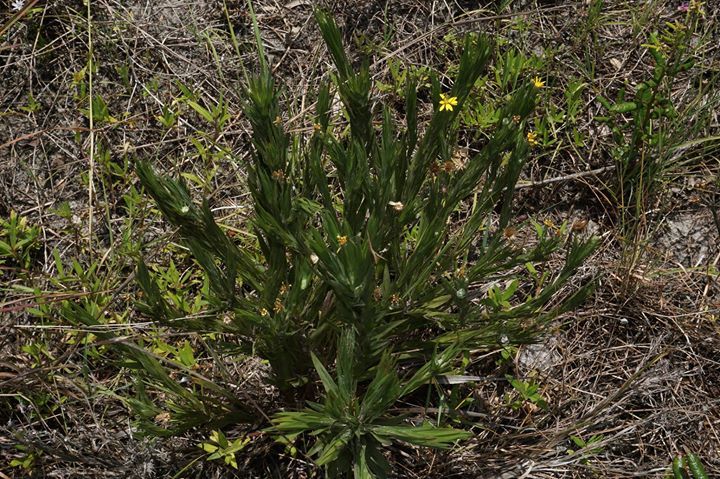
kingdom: Plantae
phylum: Tracheophyta
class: Magnoliopsida
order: Asterales
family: Asteraceae
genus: Pityopsis
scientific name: Pityopsis latifolia
